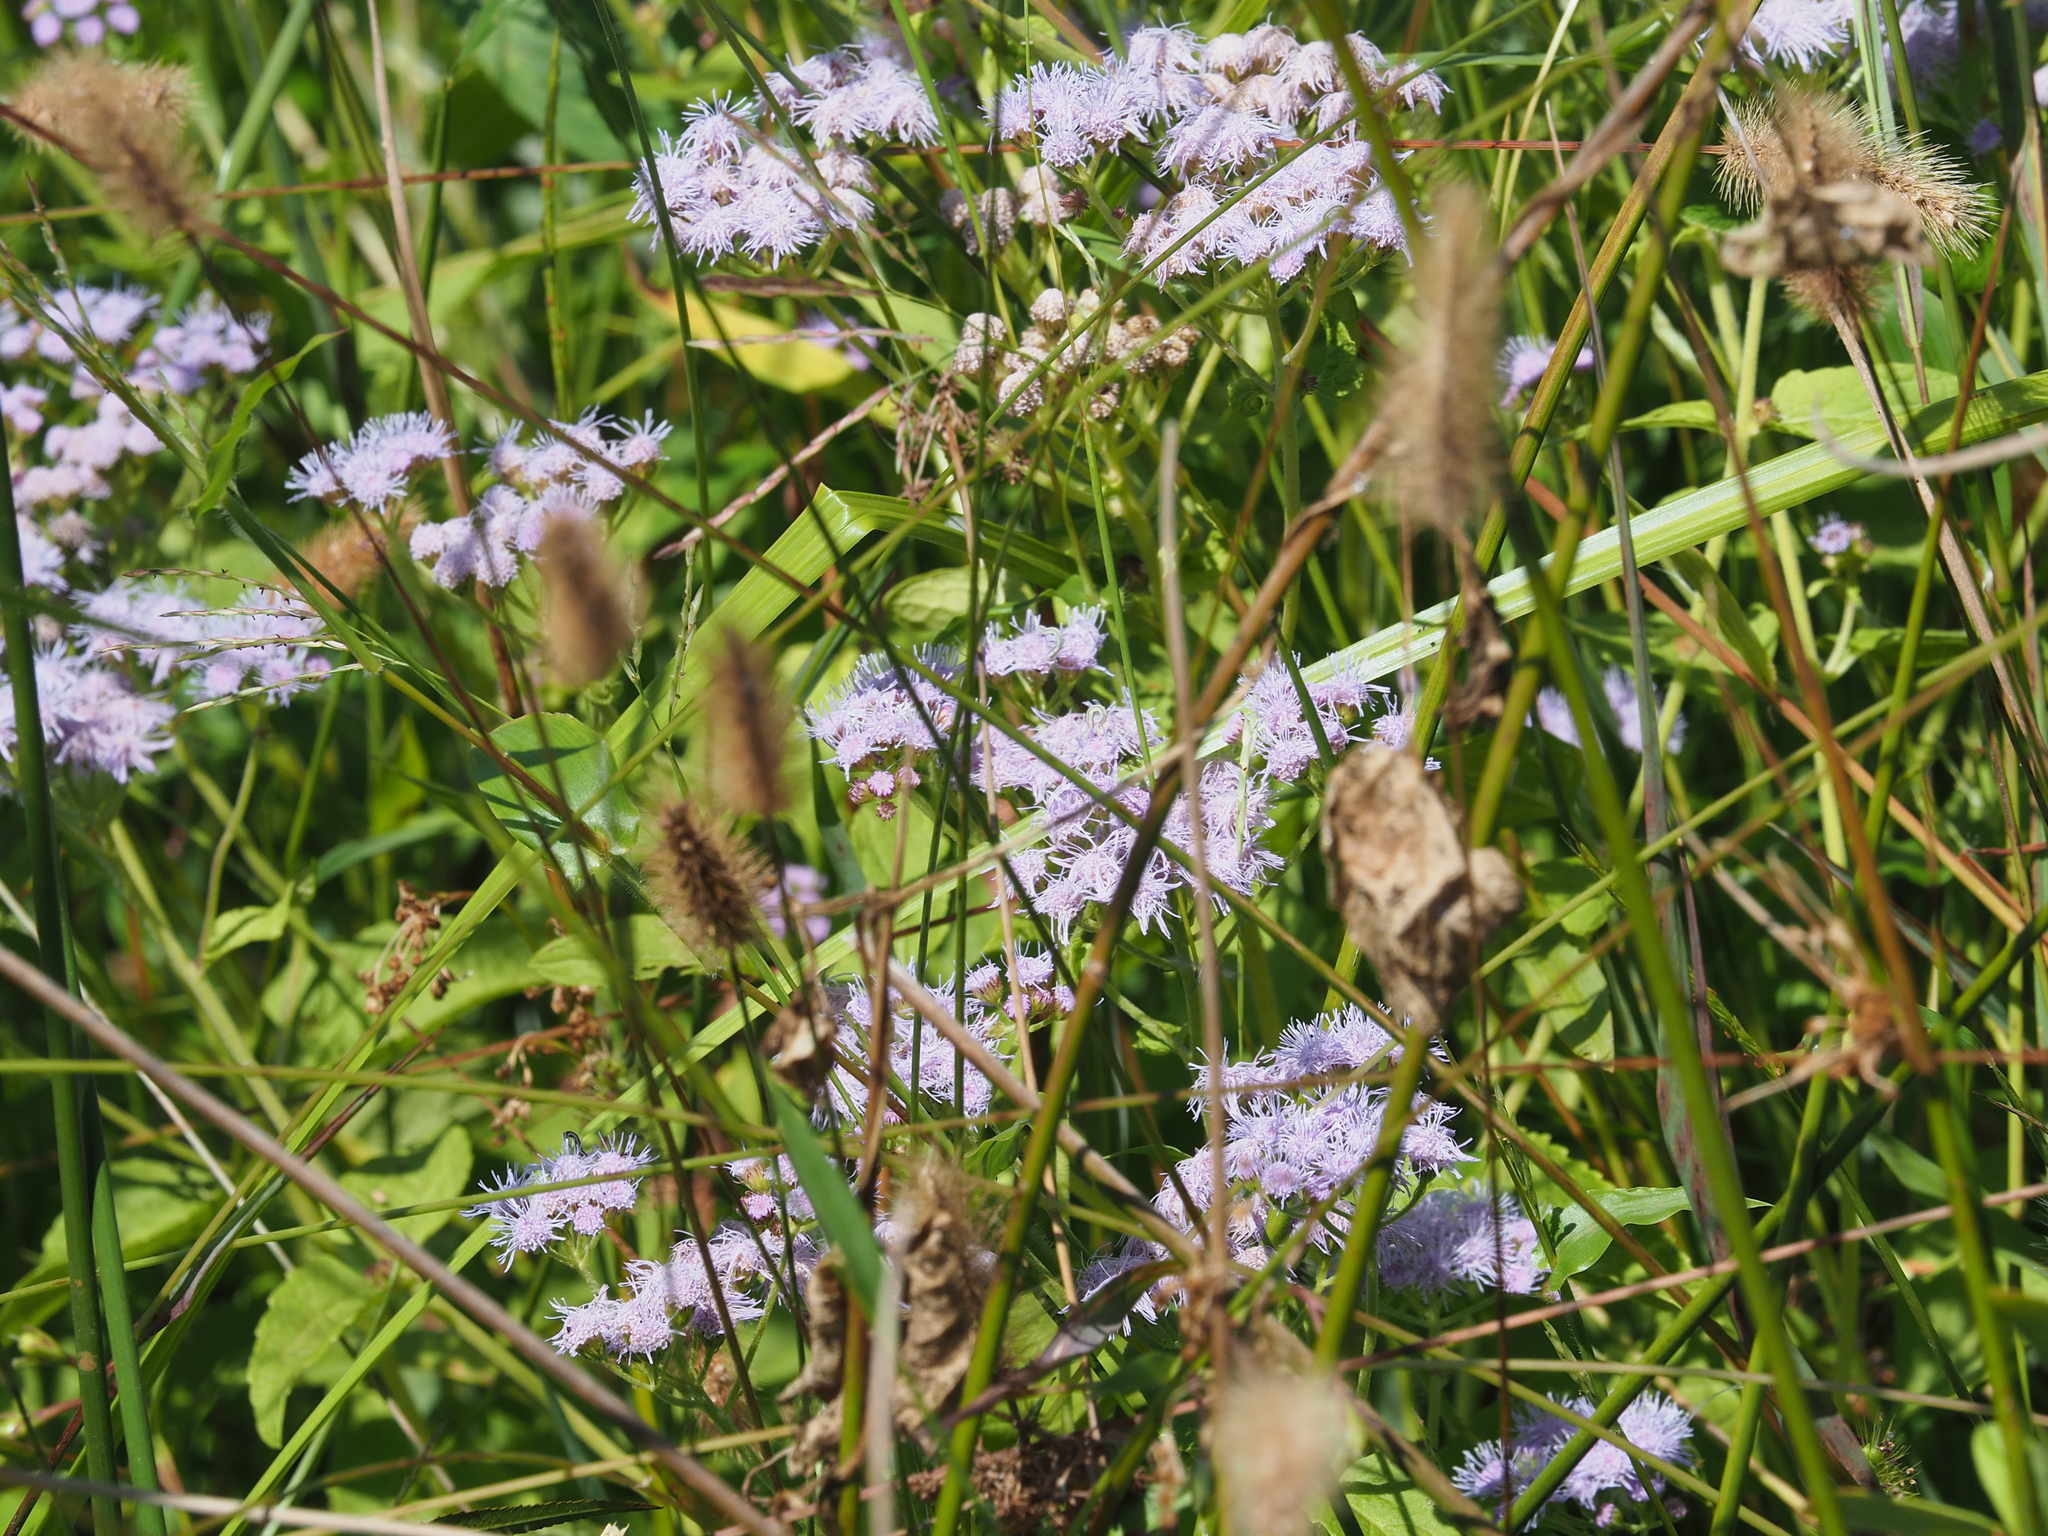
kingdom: Plantae
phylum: Tracheophyta
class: Magnoliopsida
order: Asterales
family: Asteraceae
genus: Conoclinium
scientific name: Conoclinium coelestinum
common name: Blue mistflower
